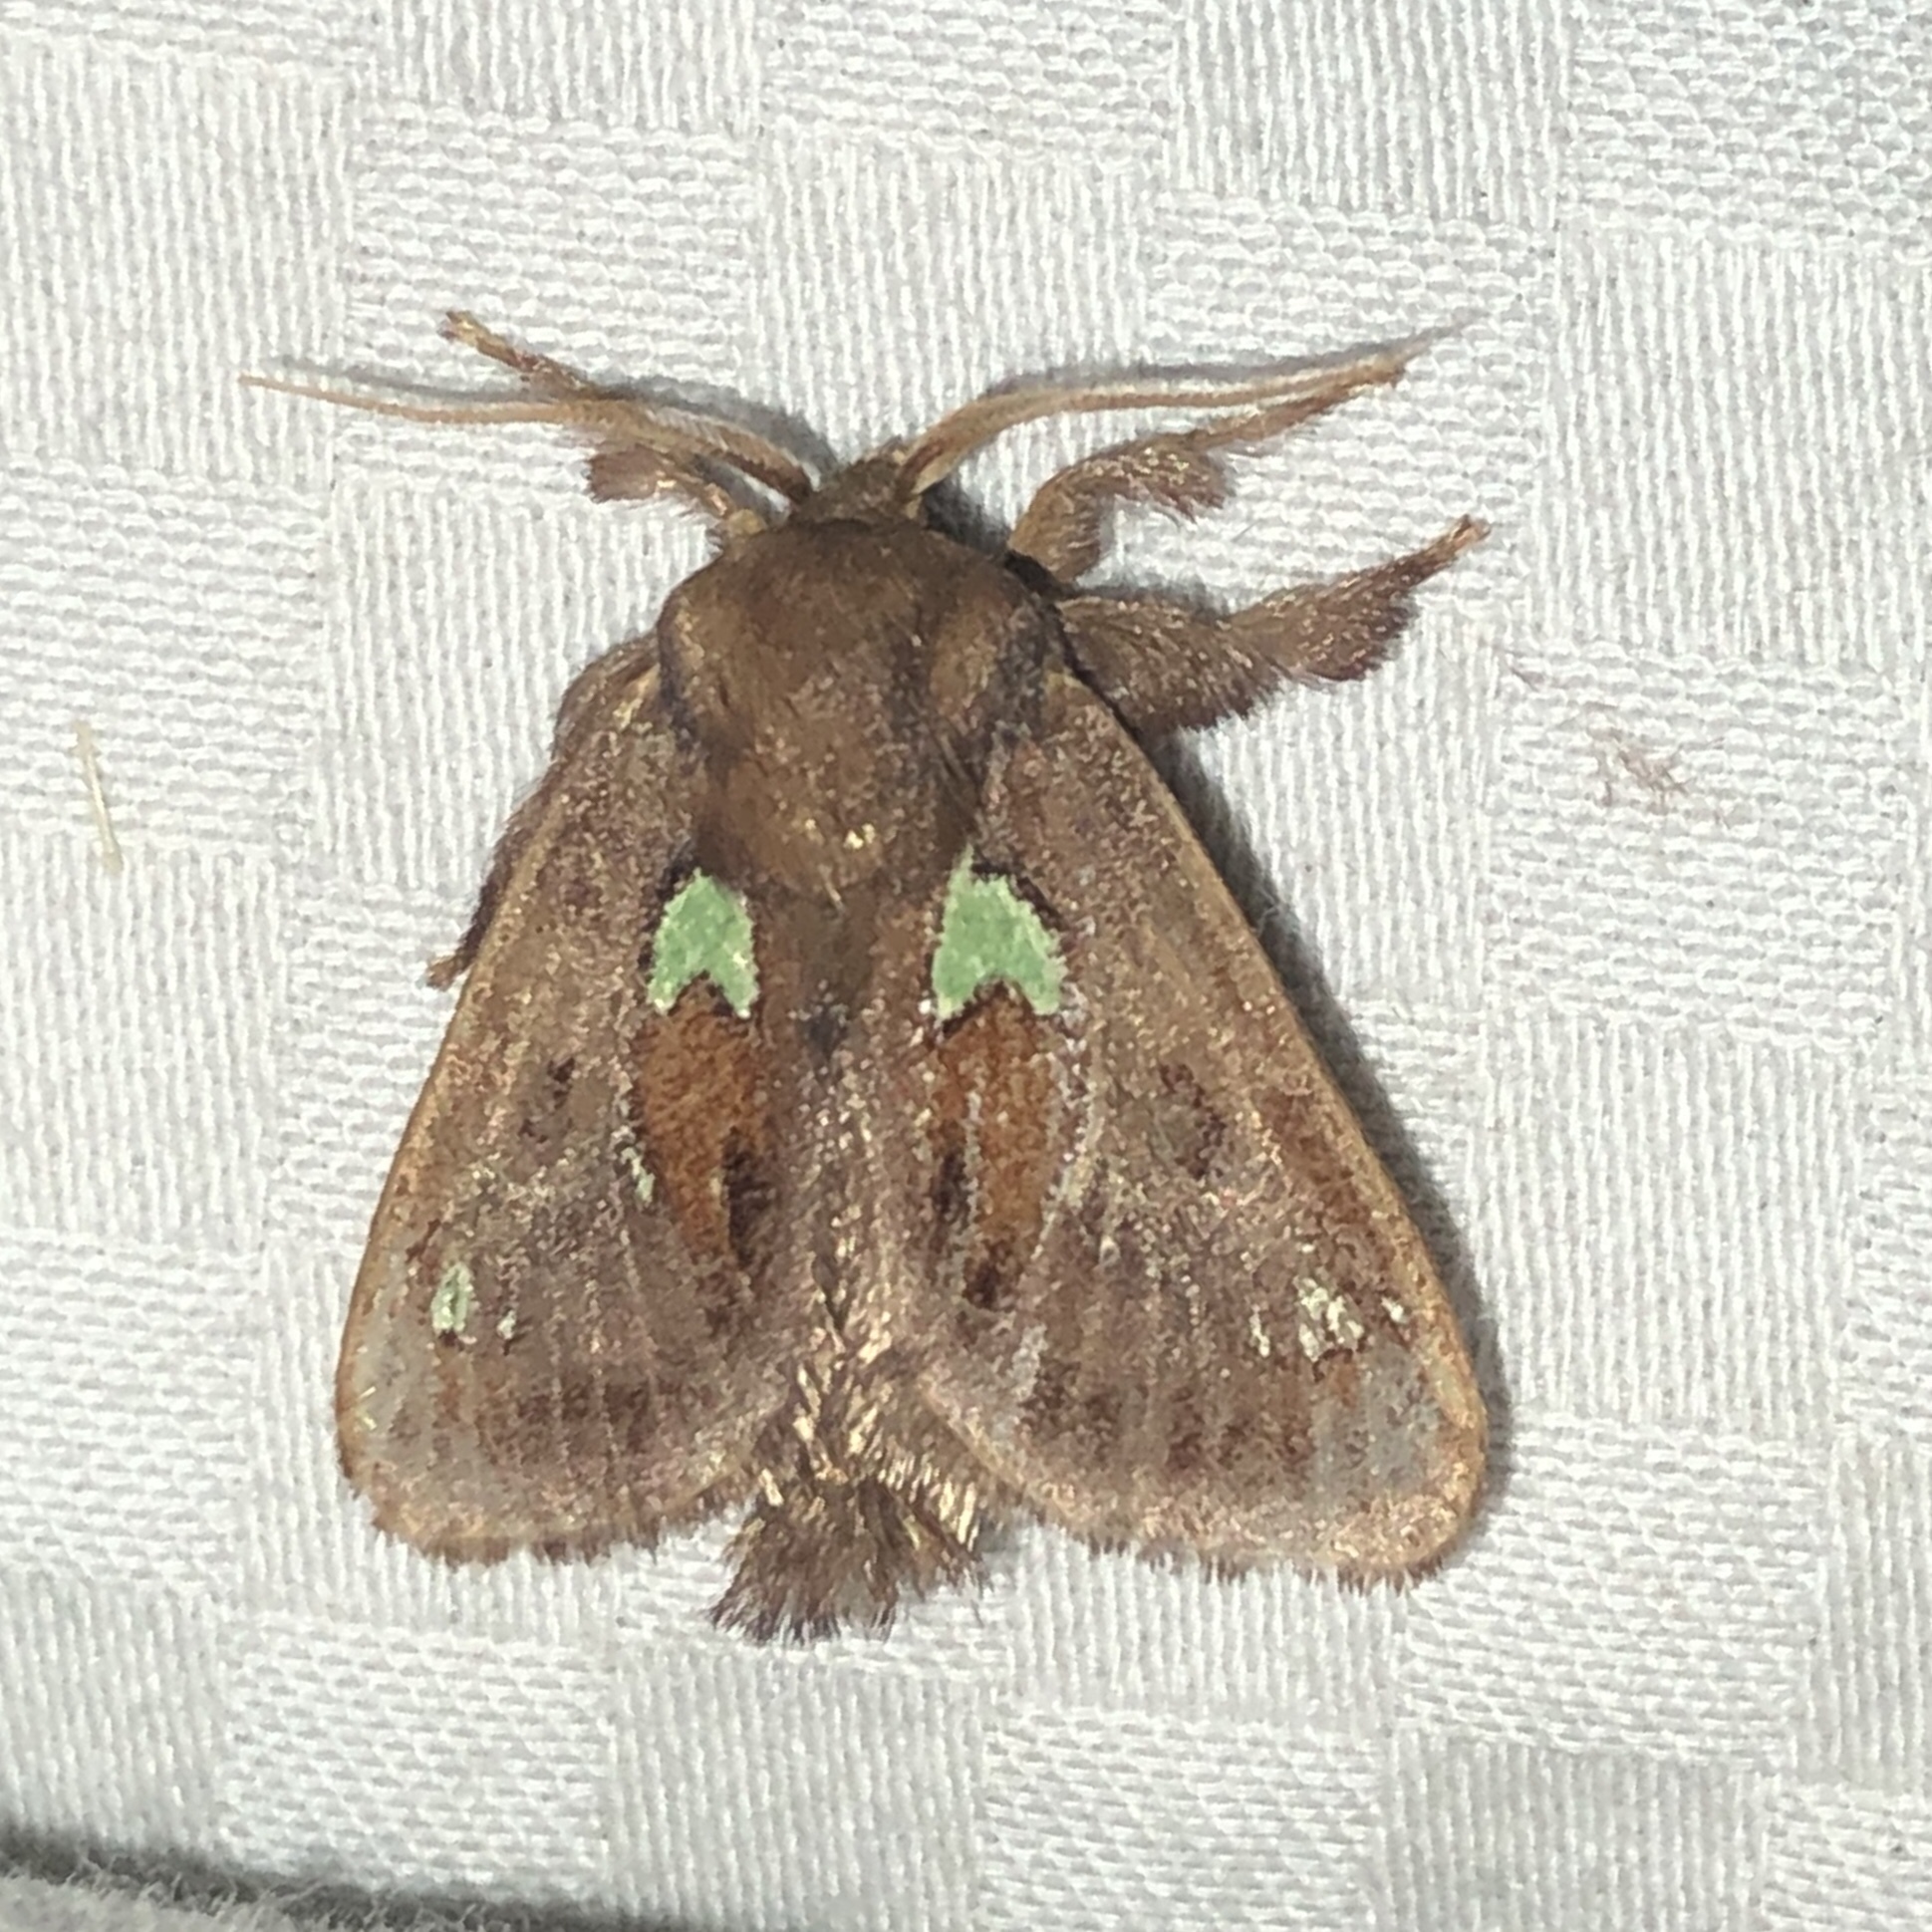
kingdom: Animalia
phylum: Arthropoda
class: Insecta
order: Lepidoptera
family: Limacodidae
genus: Euclea
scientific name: Euclea delphinii
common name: Spiny oak-slug moth
